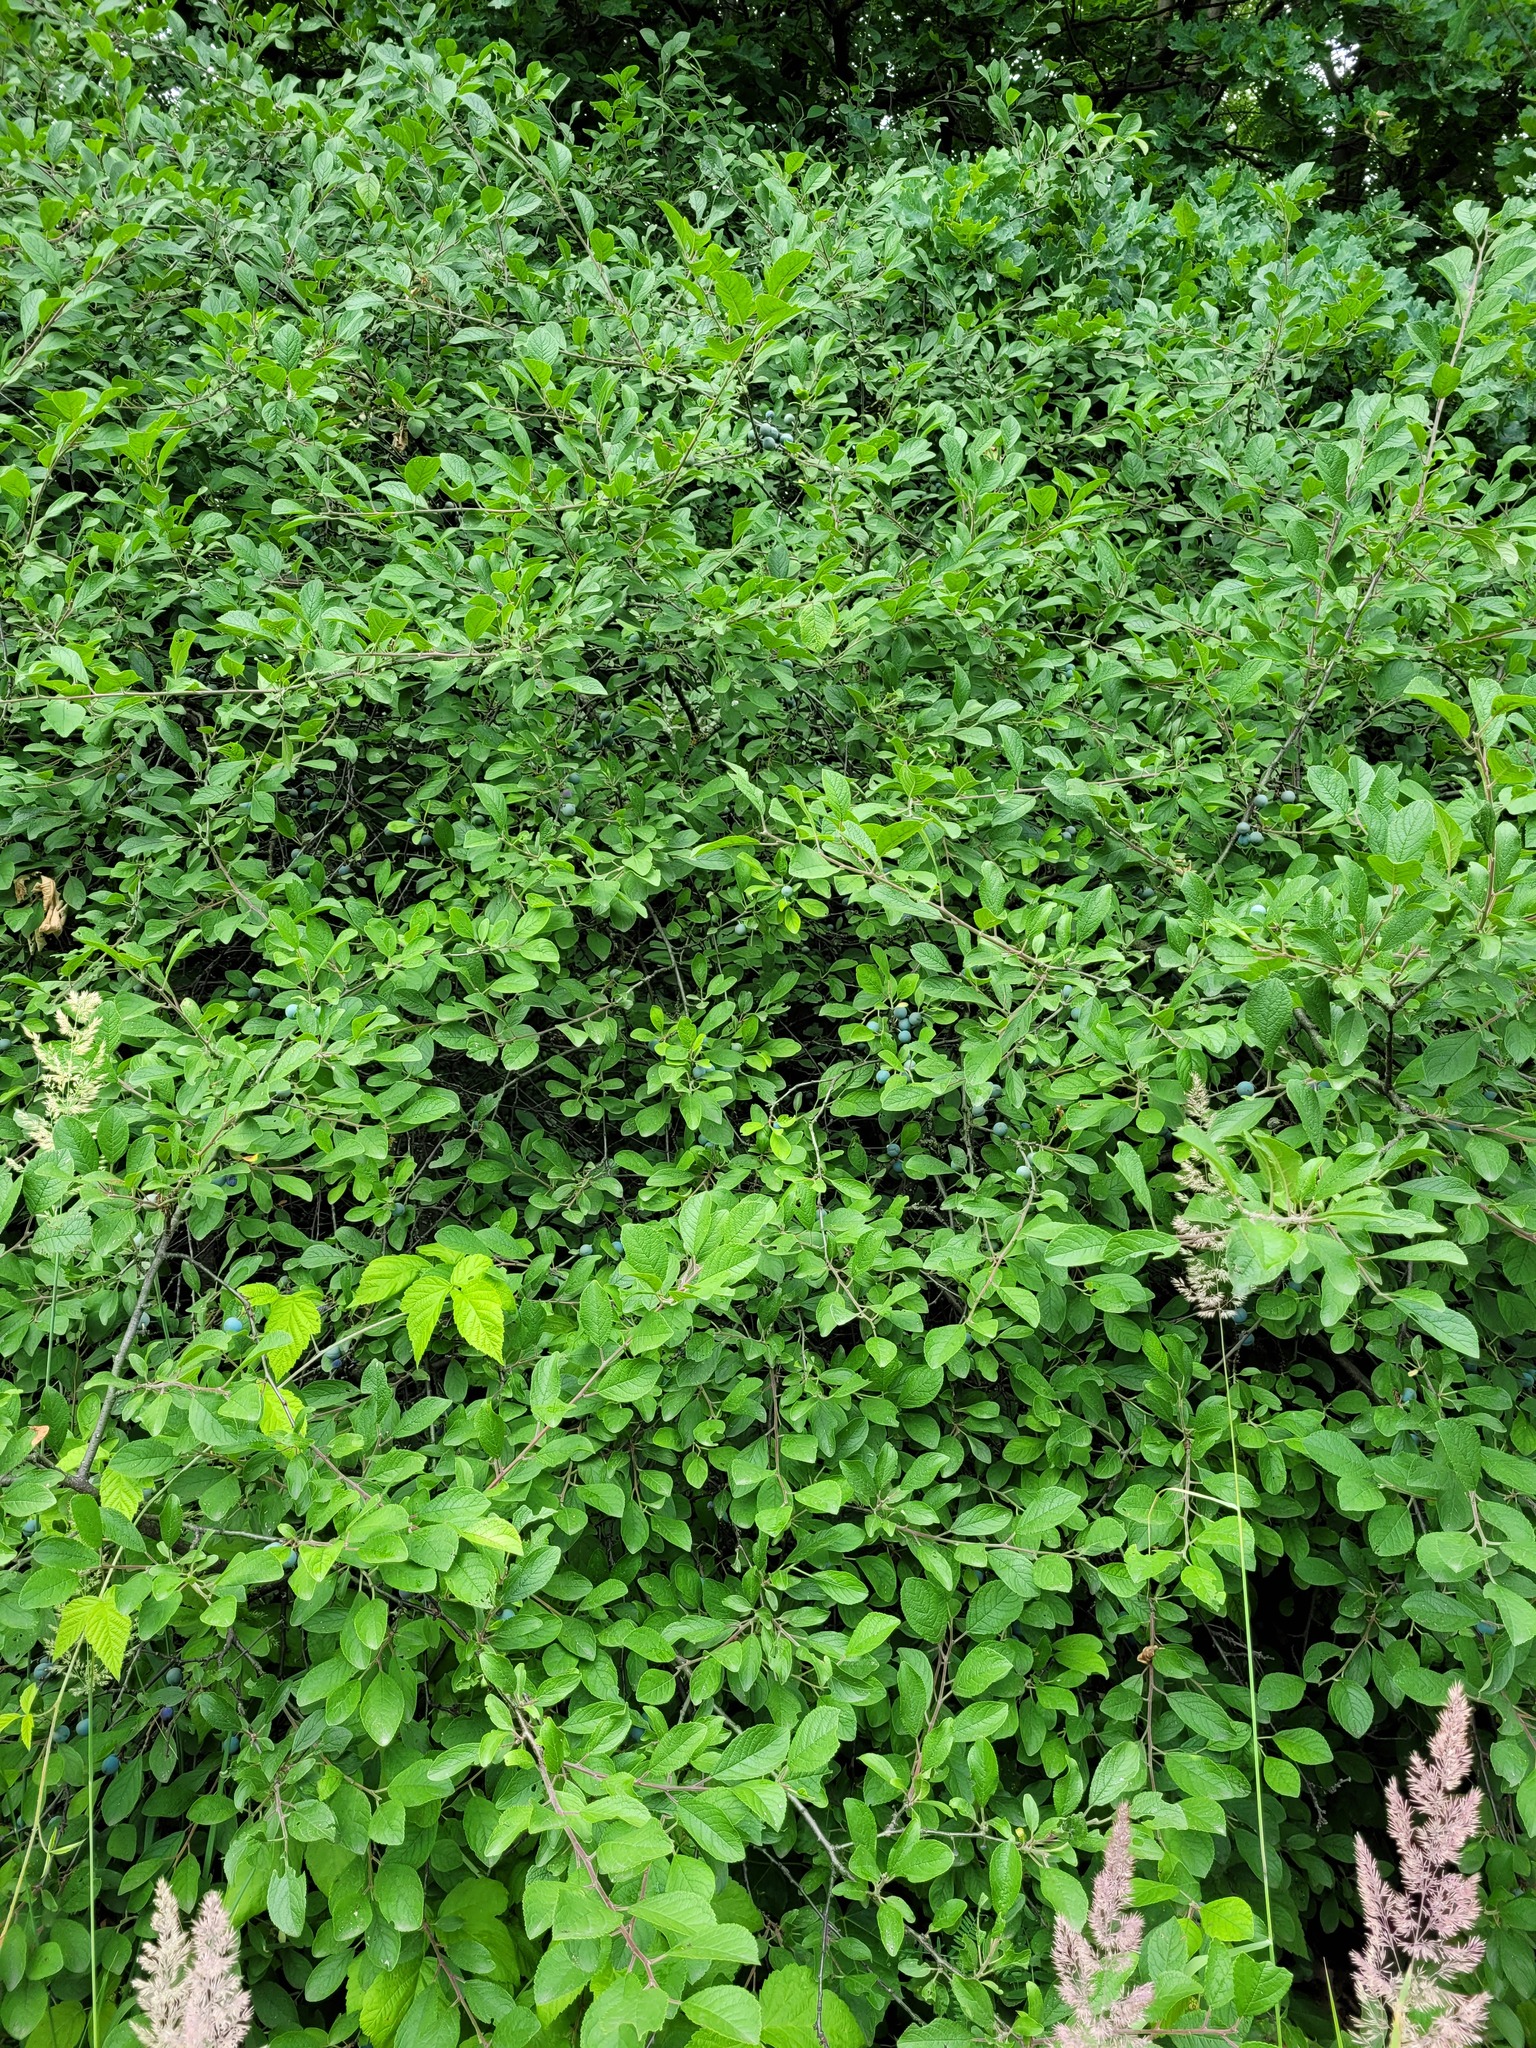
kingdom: Plantae
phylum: Tracheophyta
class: Magnoliopsida
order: Rosales
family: Rosaceae
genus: Prunus
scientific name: Prunus spinosa
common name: Blackthorn
